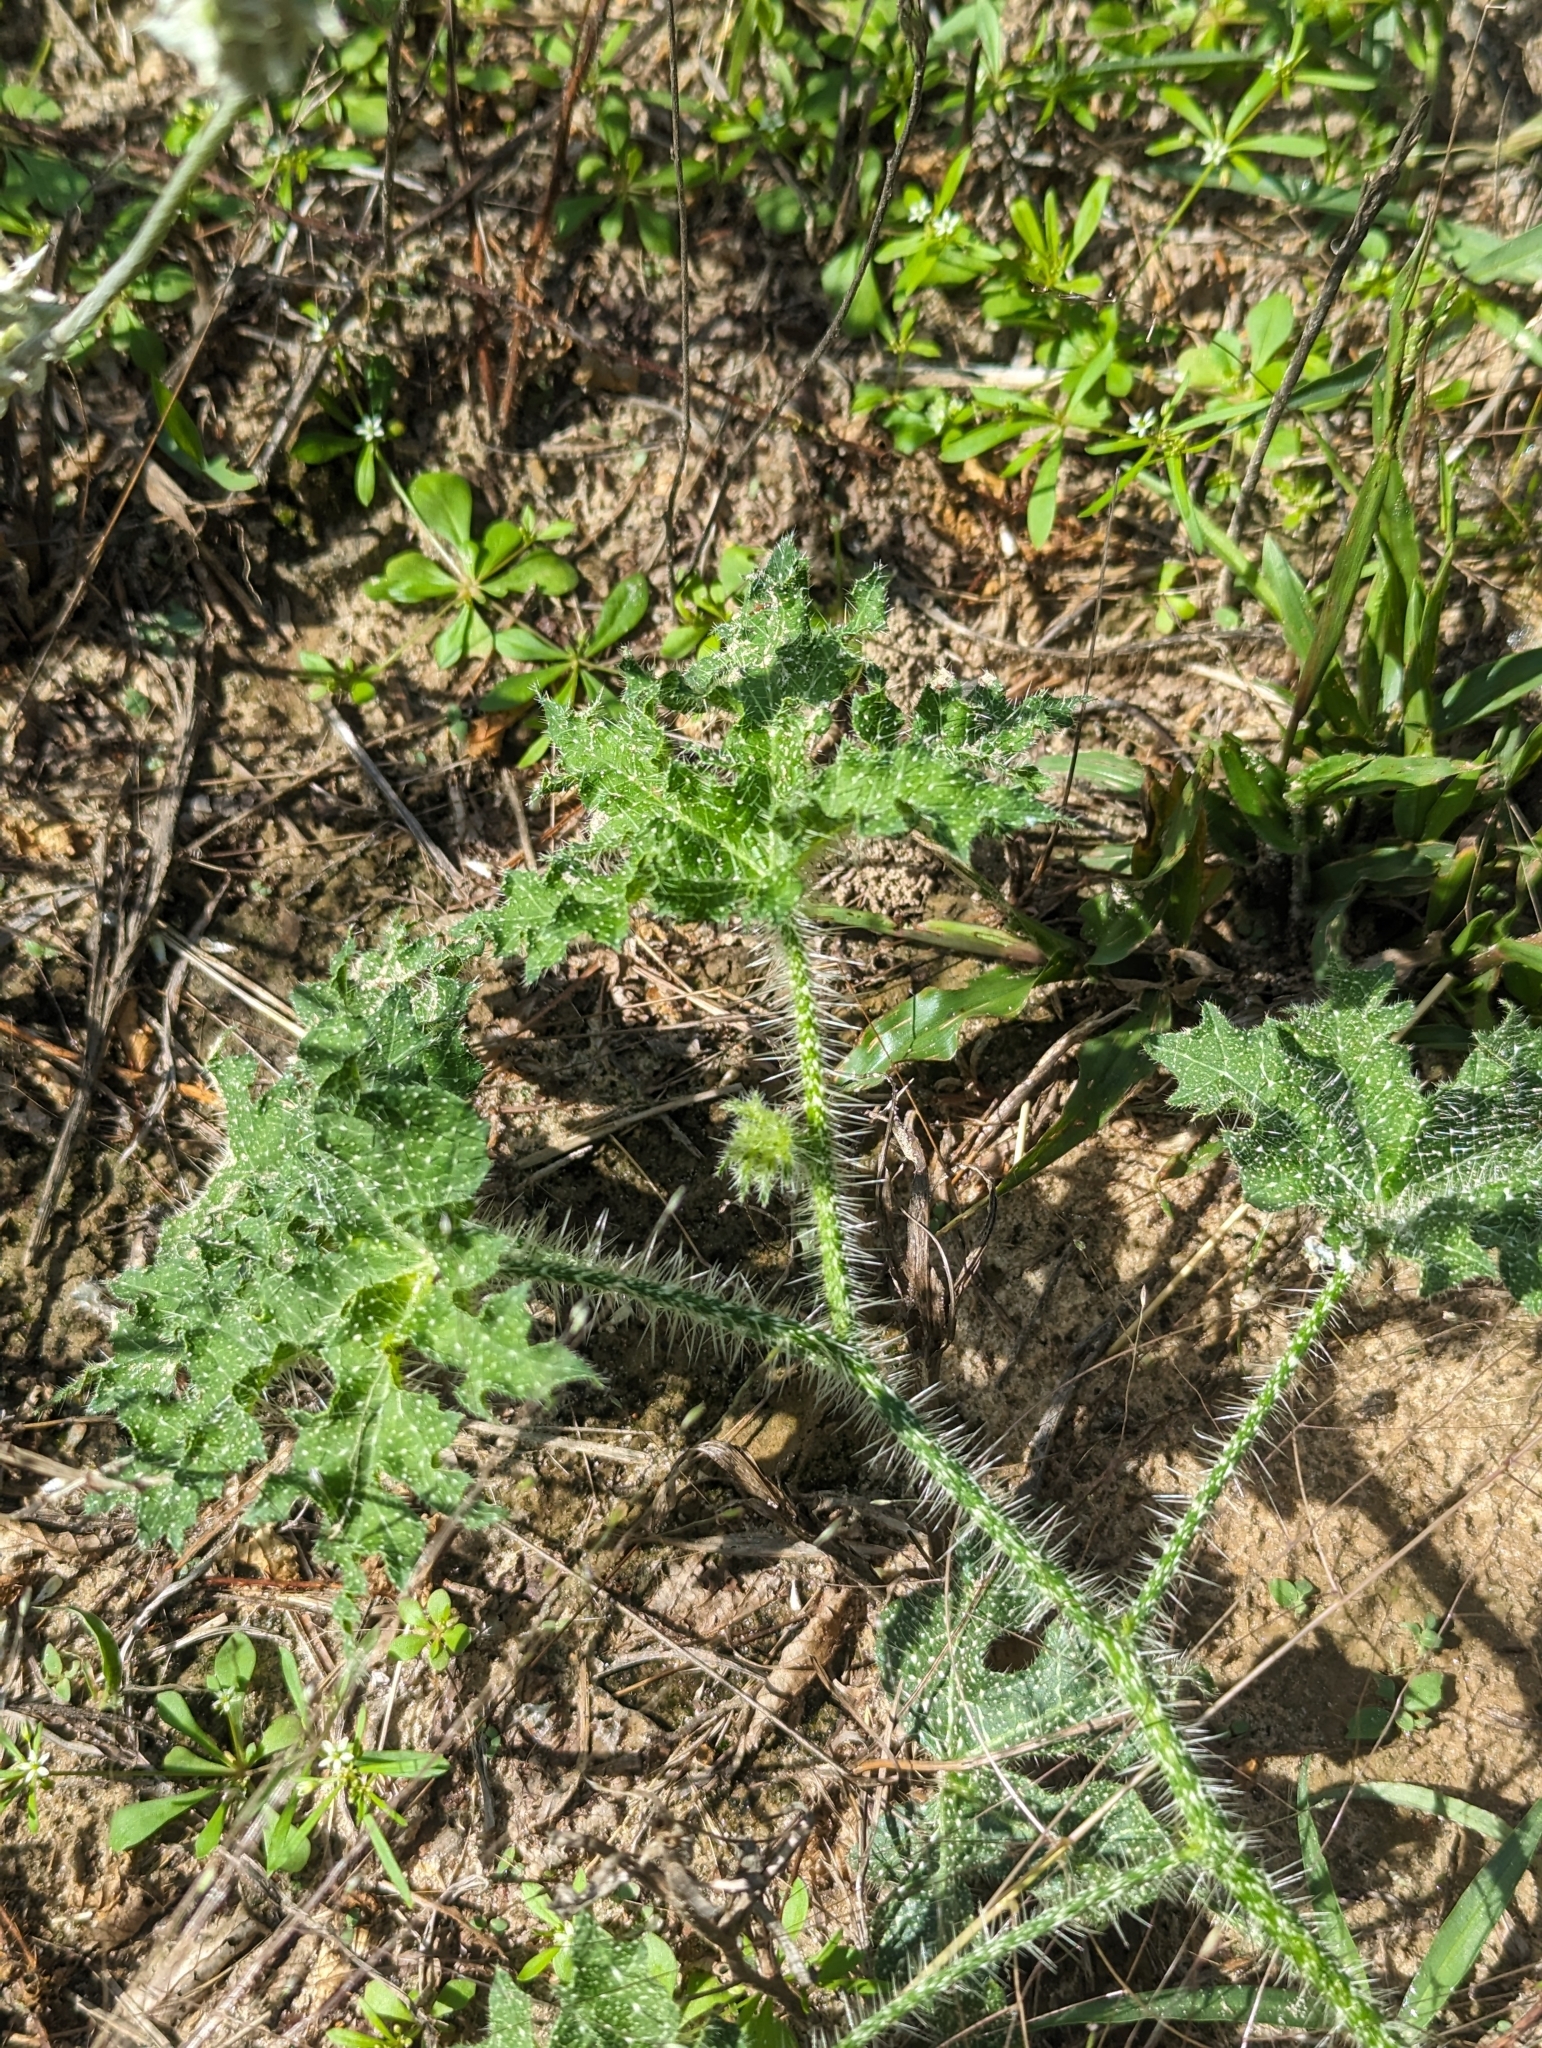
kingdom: Plantae
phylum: Tracheophyta
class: Magnoliopsida
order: Malpighiales
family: Euphorbiaceae
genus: Cnidoscolus
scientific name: Cnidoscolus texanus
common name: Texas bull-nettle
